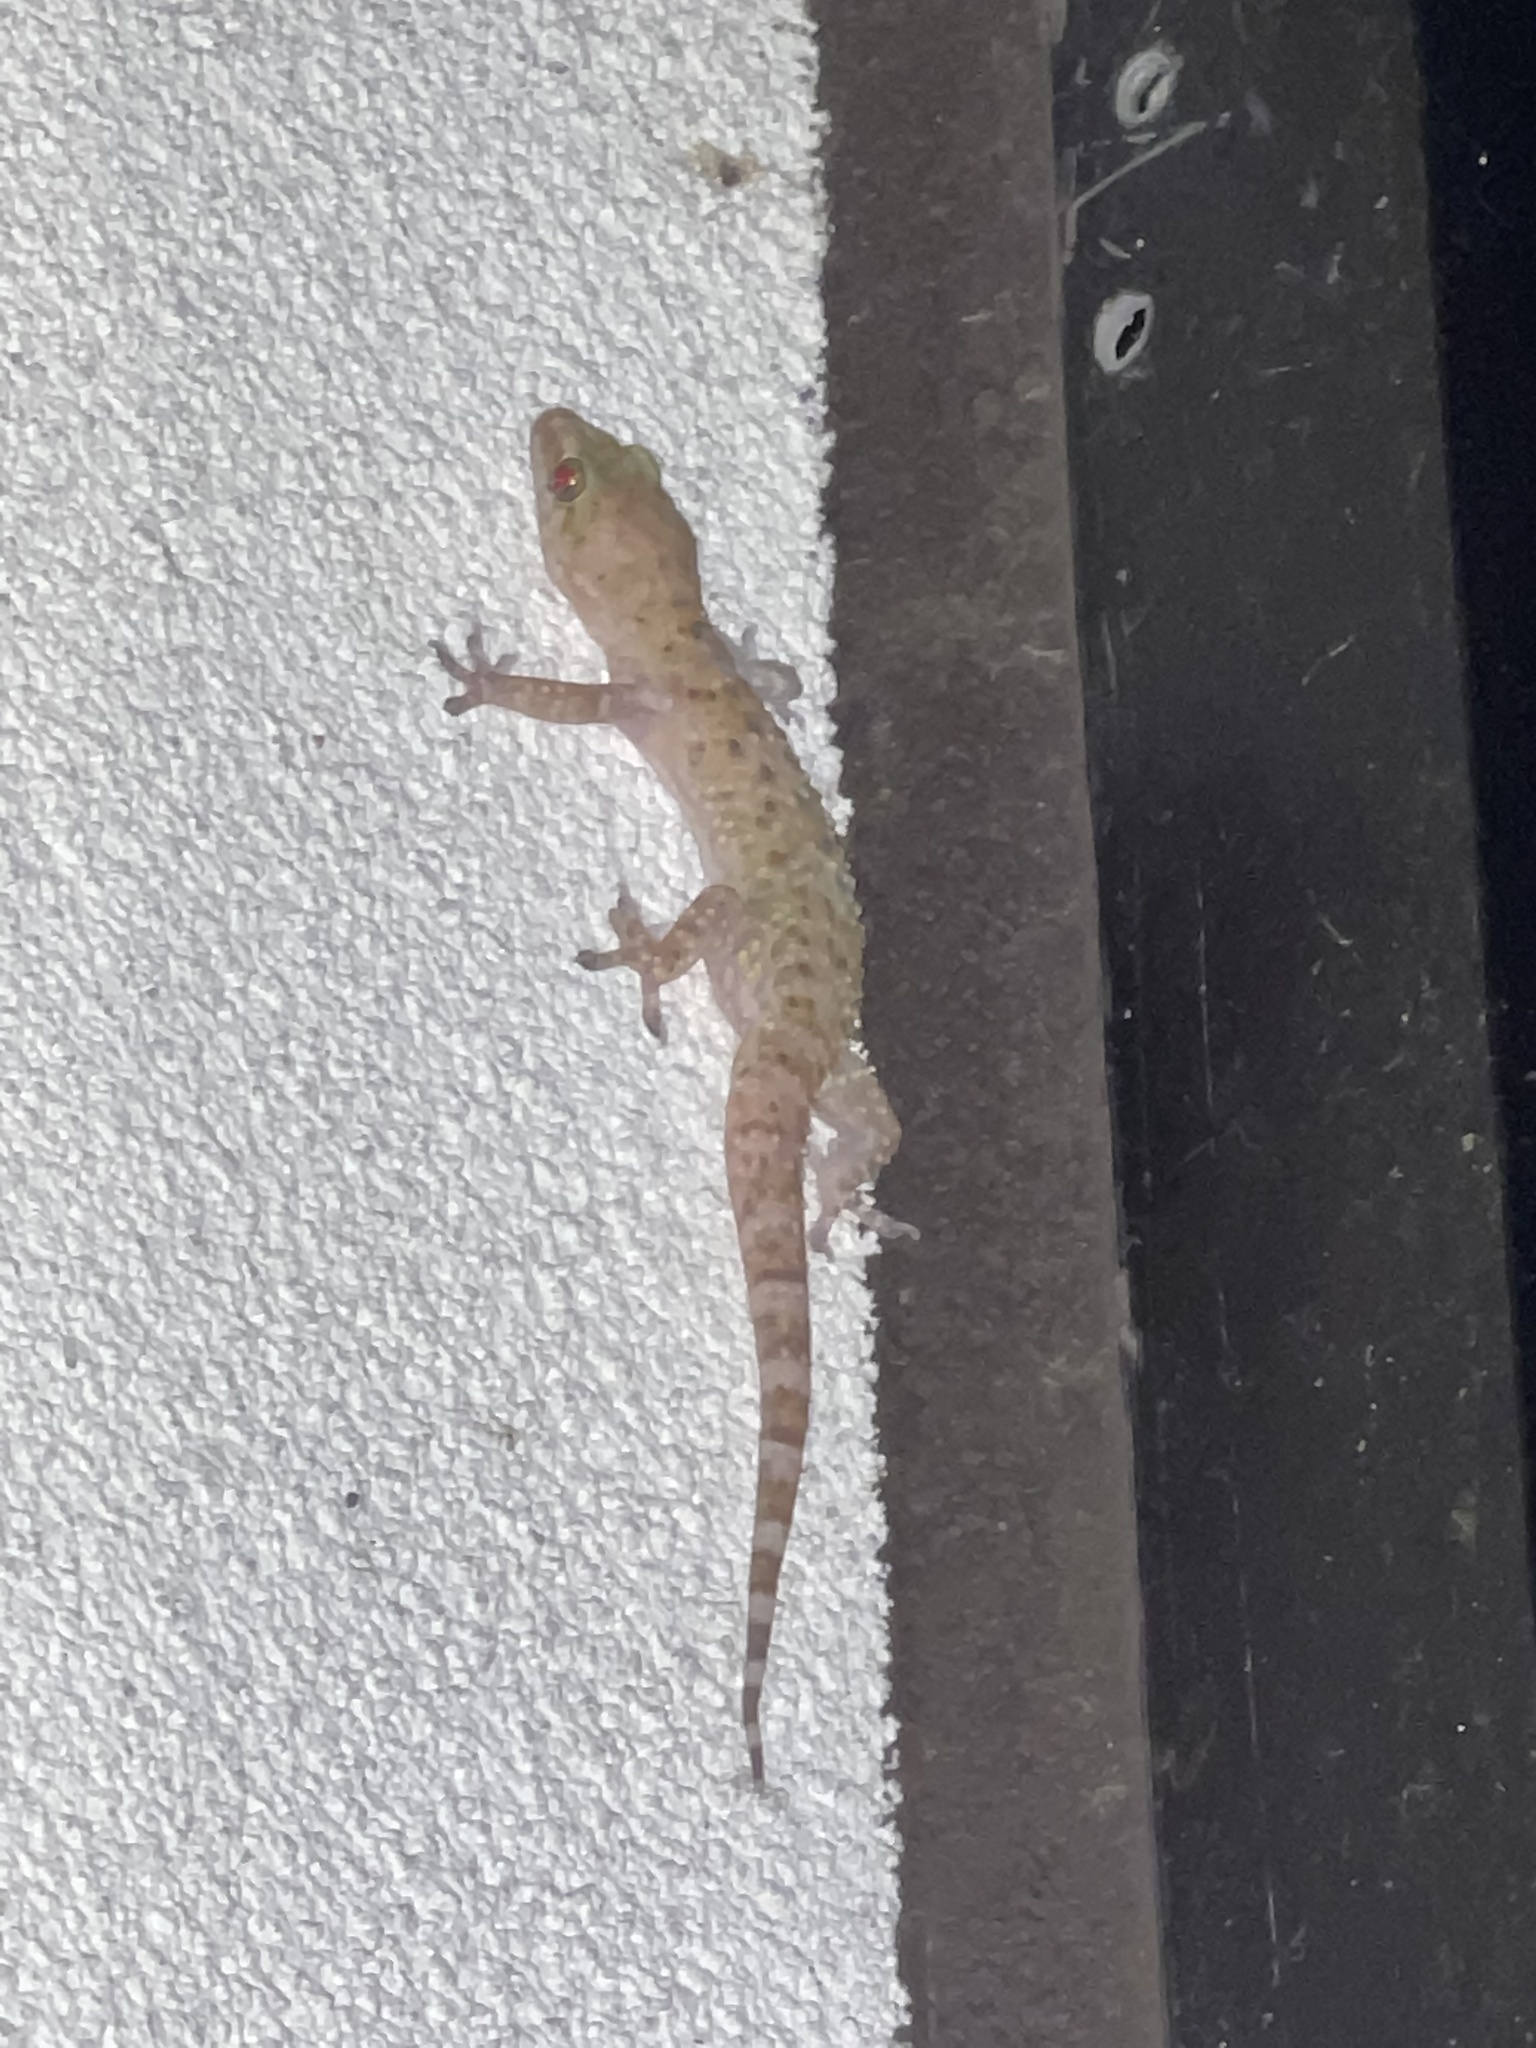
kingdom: Animalia
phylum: Chordata
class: Squamata
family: Gekkonidae
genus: Hemidactylus
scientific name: Hemidactylus turcicus
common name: Turkish gecko
